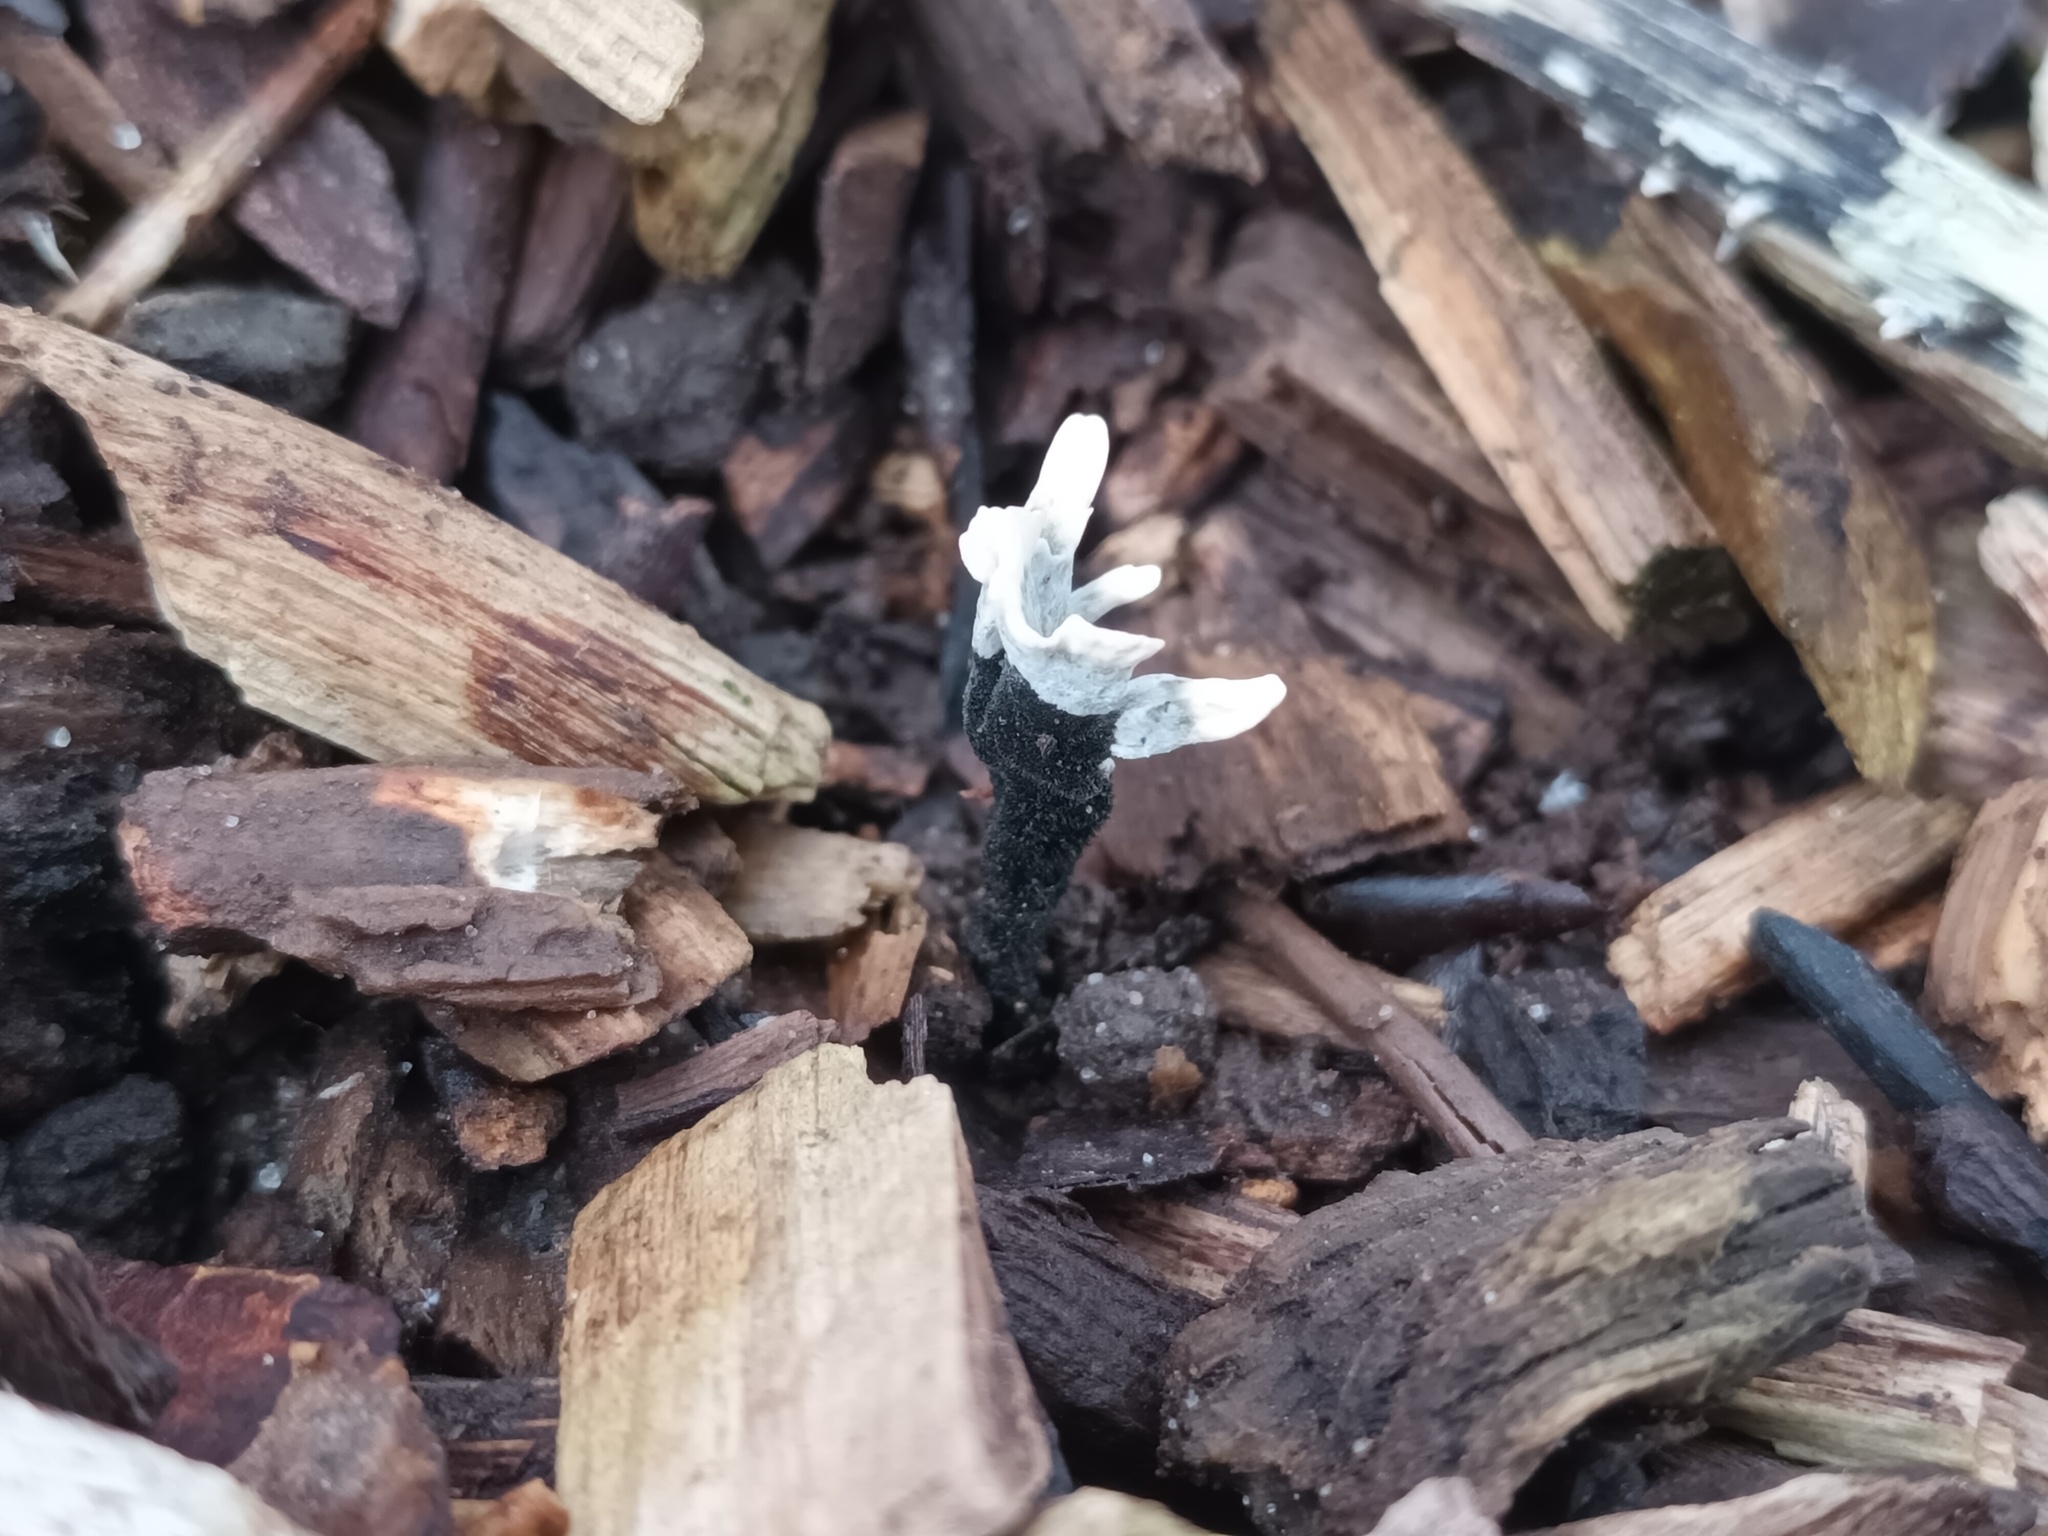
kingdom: Fungi
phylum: Ascomycota
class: Sordariomycetes
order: Xylariales
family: Xylariaceae
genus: Xylaria
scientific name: Xylaria hypoxylon
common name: Candle-snuff fungus
